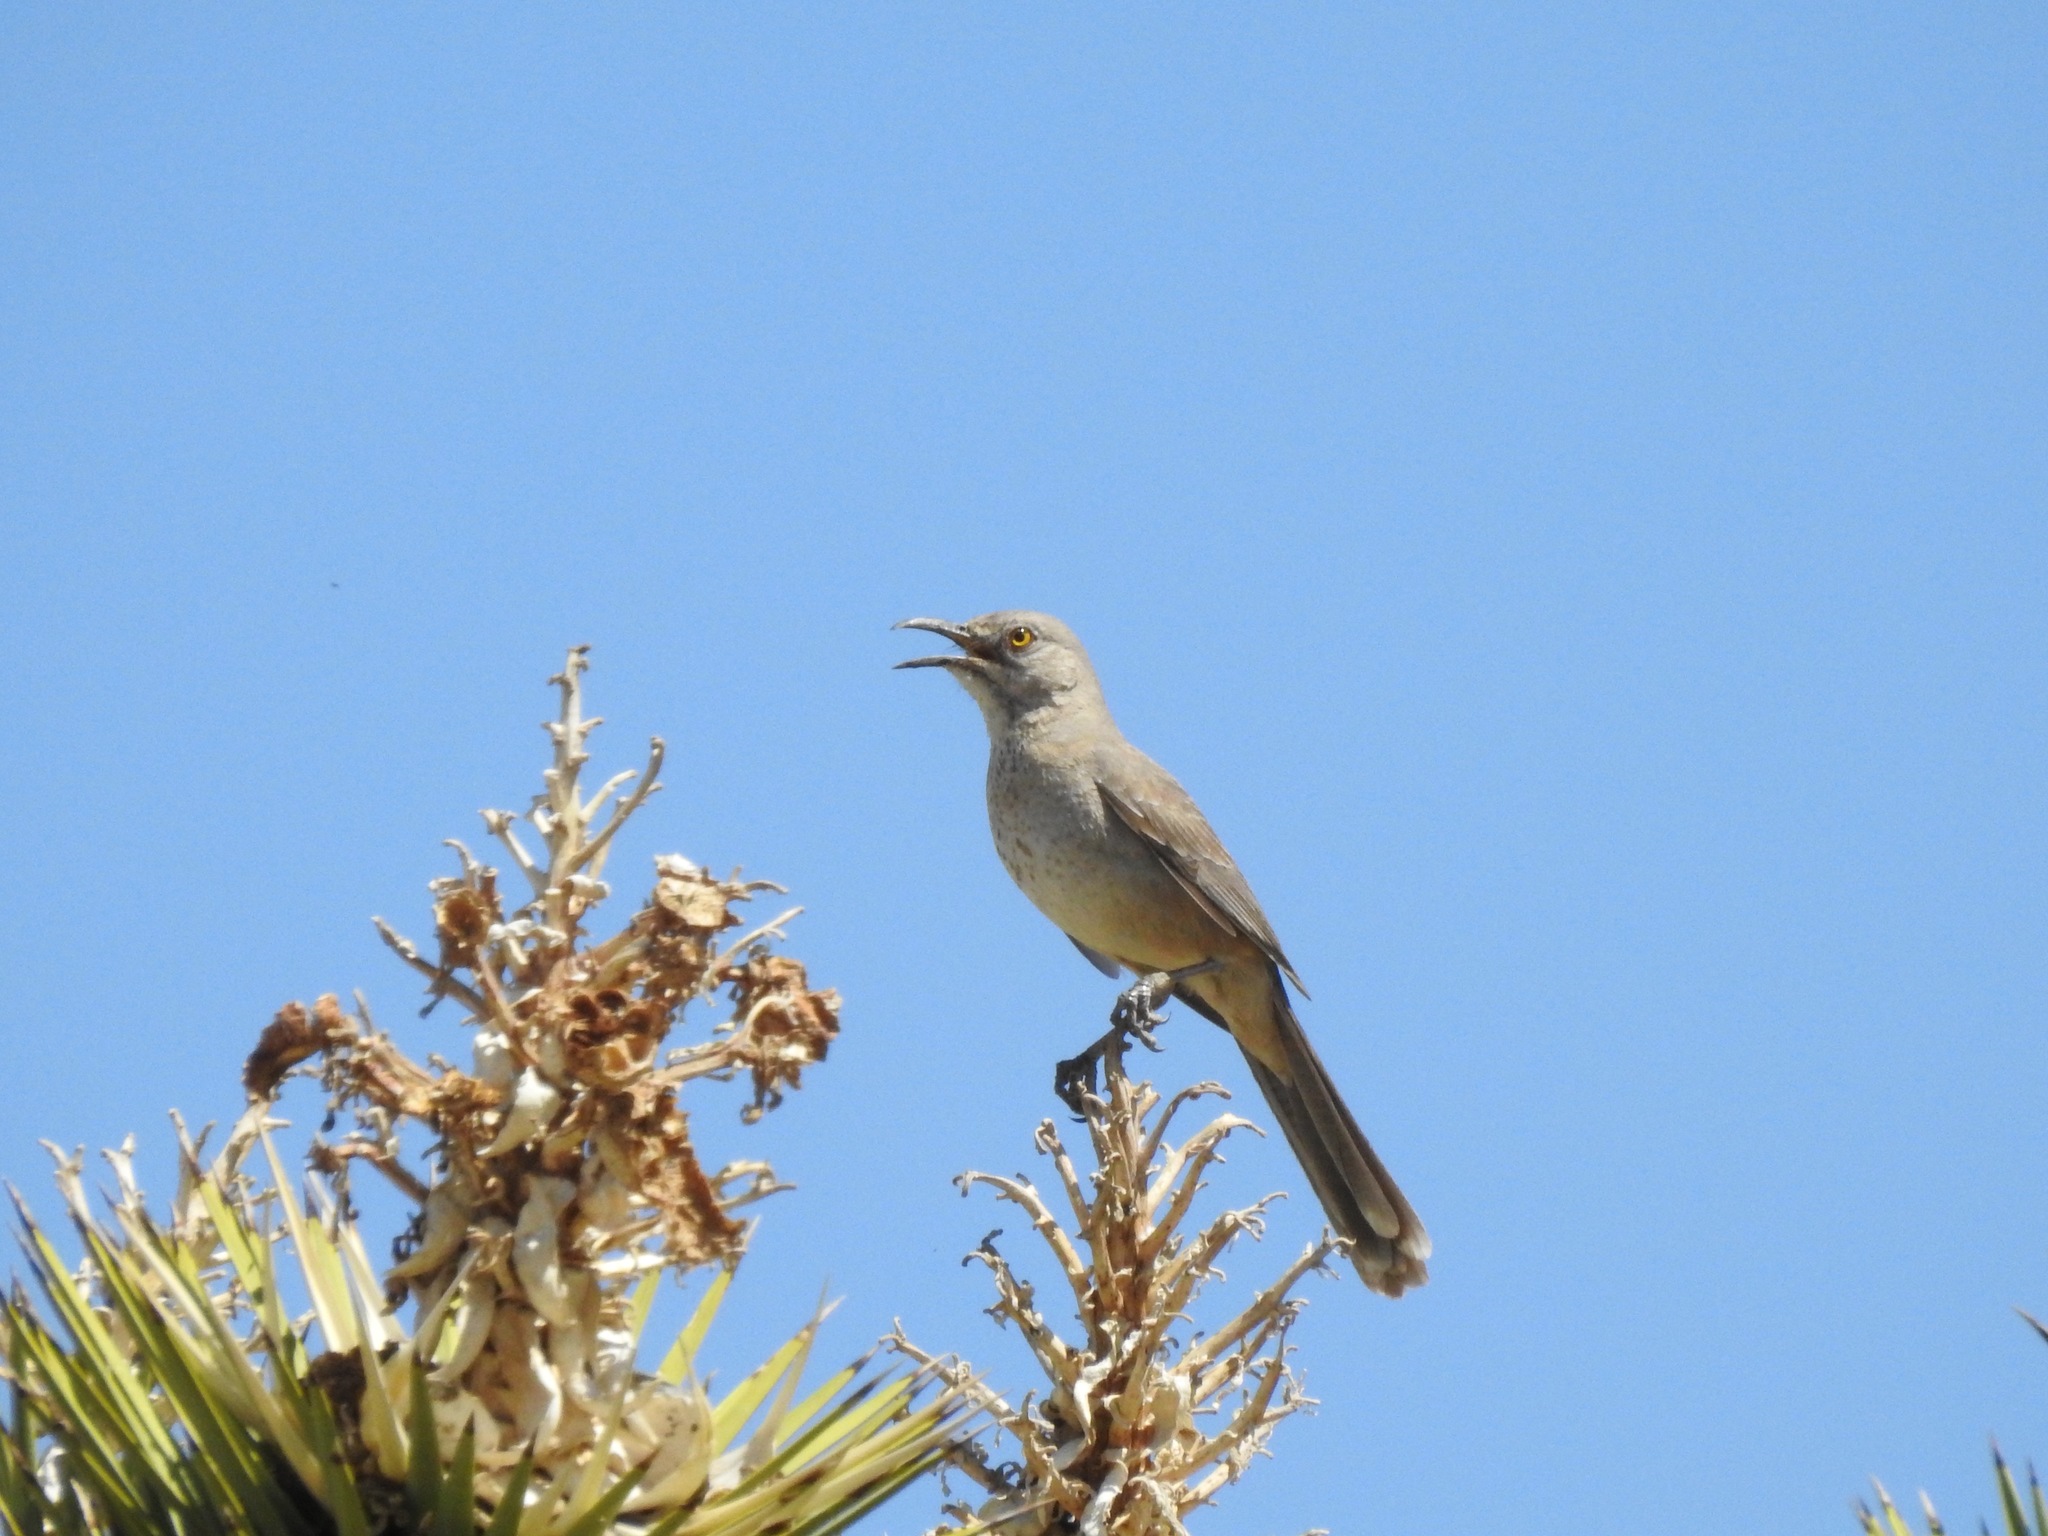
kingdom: Animalia
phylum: Chordata
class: Aves
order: Passeriformes
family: Mimidae
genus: Toxostoma
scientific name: Toxostoma bendirei
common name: Bendire's thrasher
